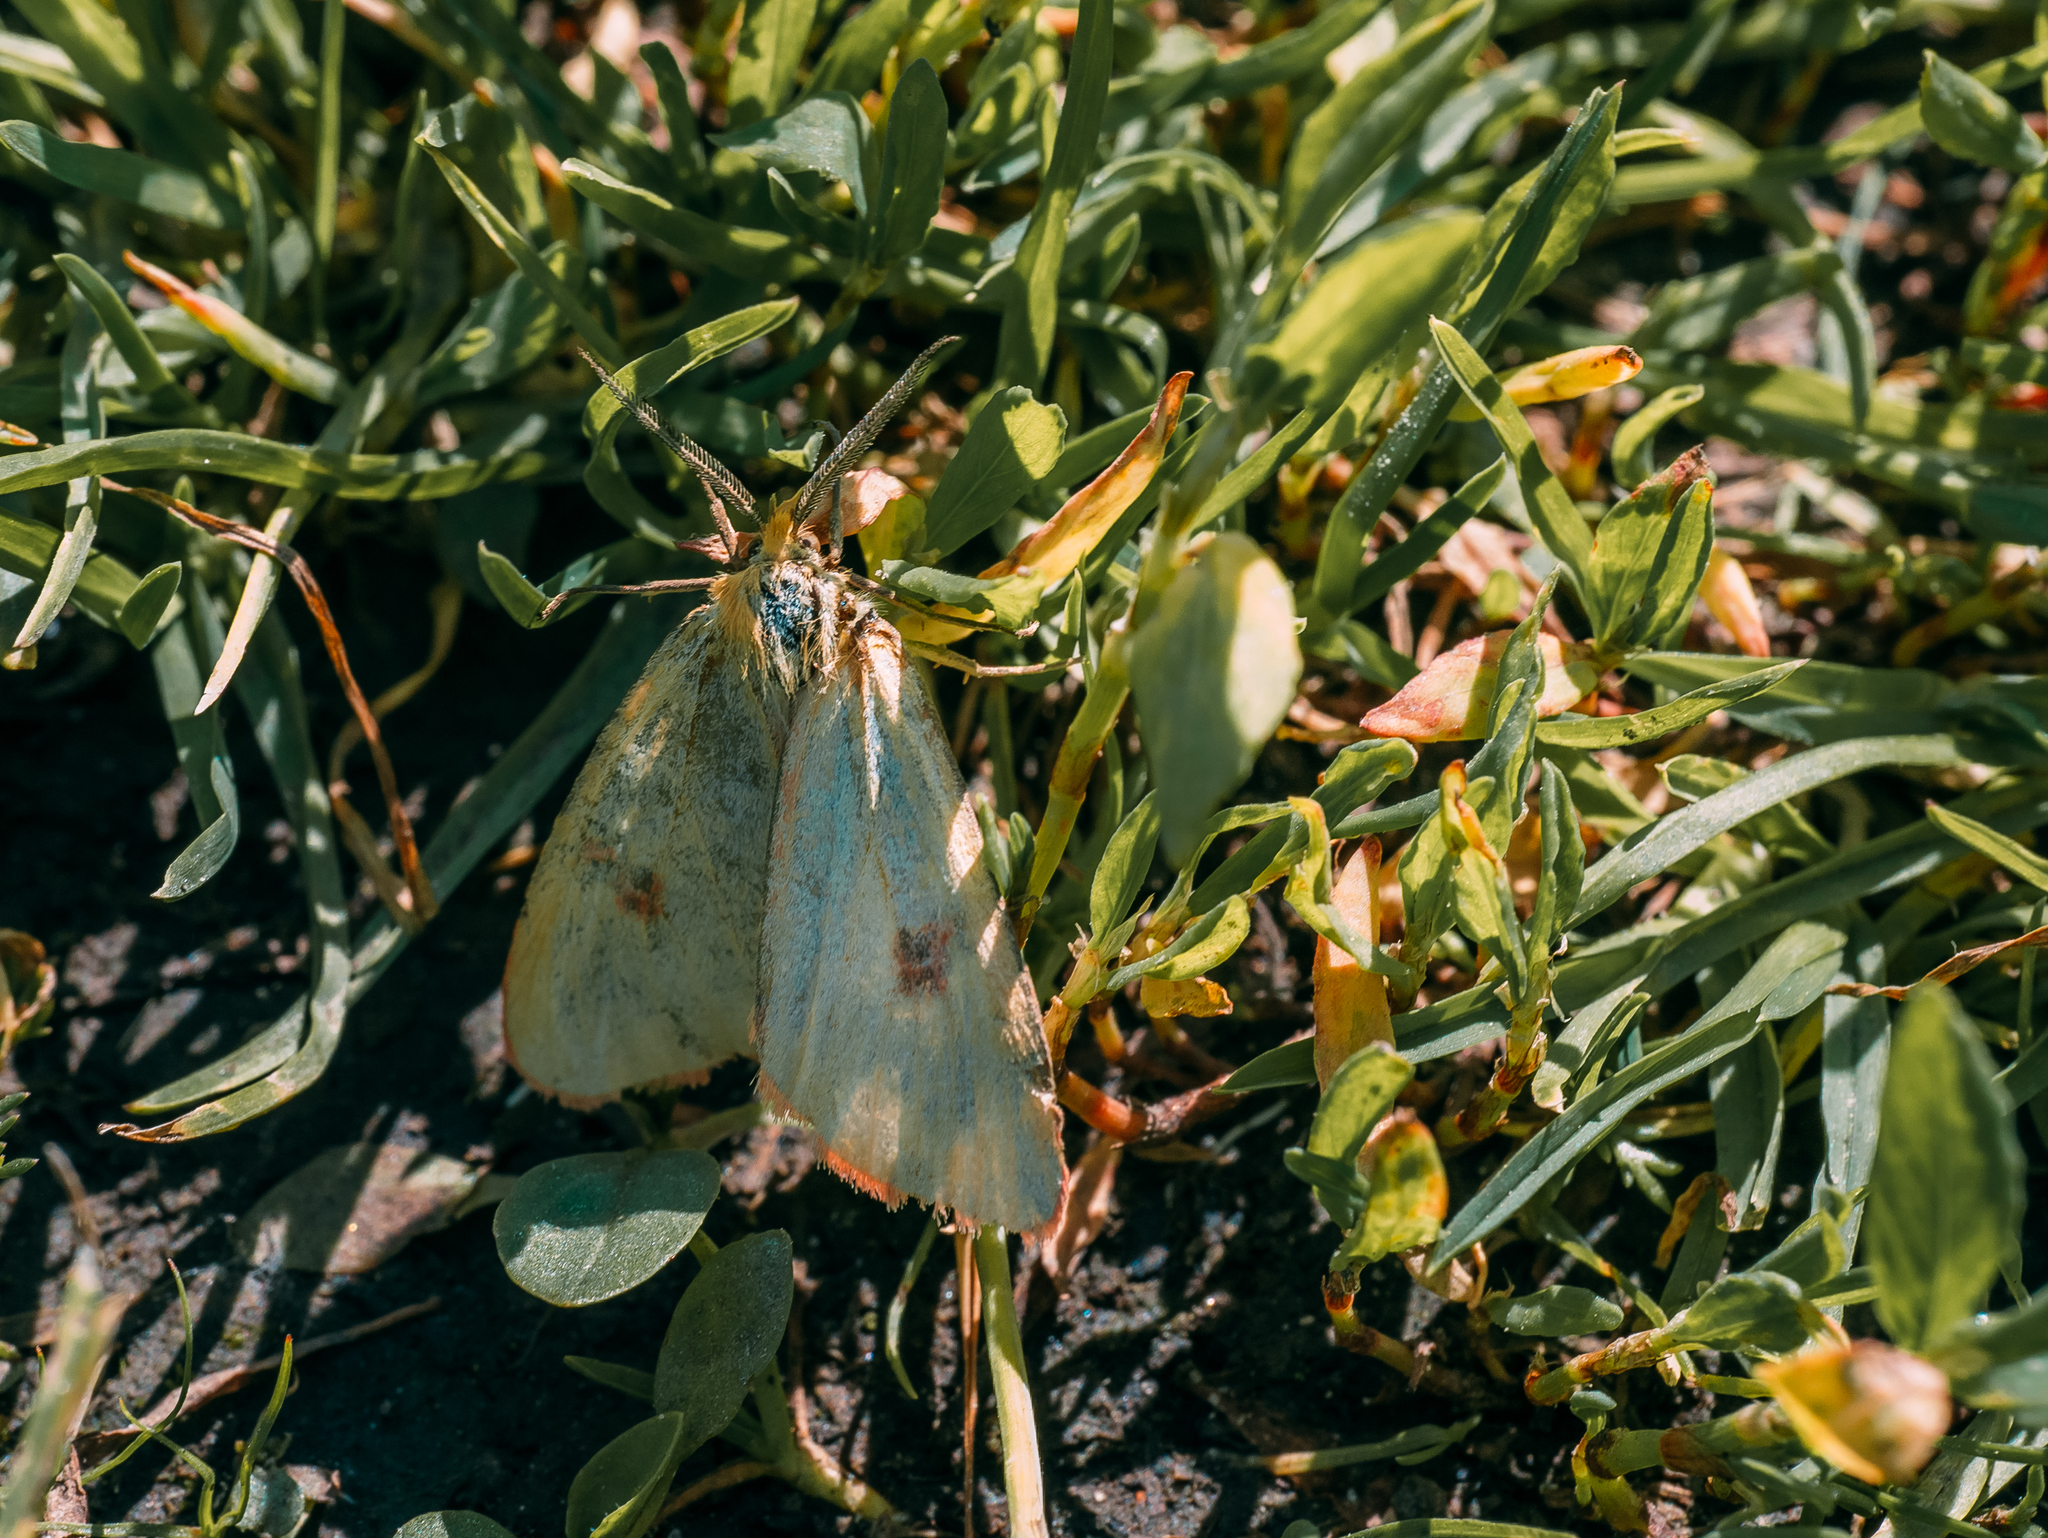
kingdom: Animalia
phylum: Arthropoda
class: Insecta
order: Lepidoptera
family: Erebidae
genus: Diacrisia
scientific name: Diacrisia sannio
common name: Clouded buff
